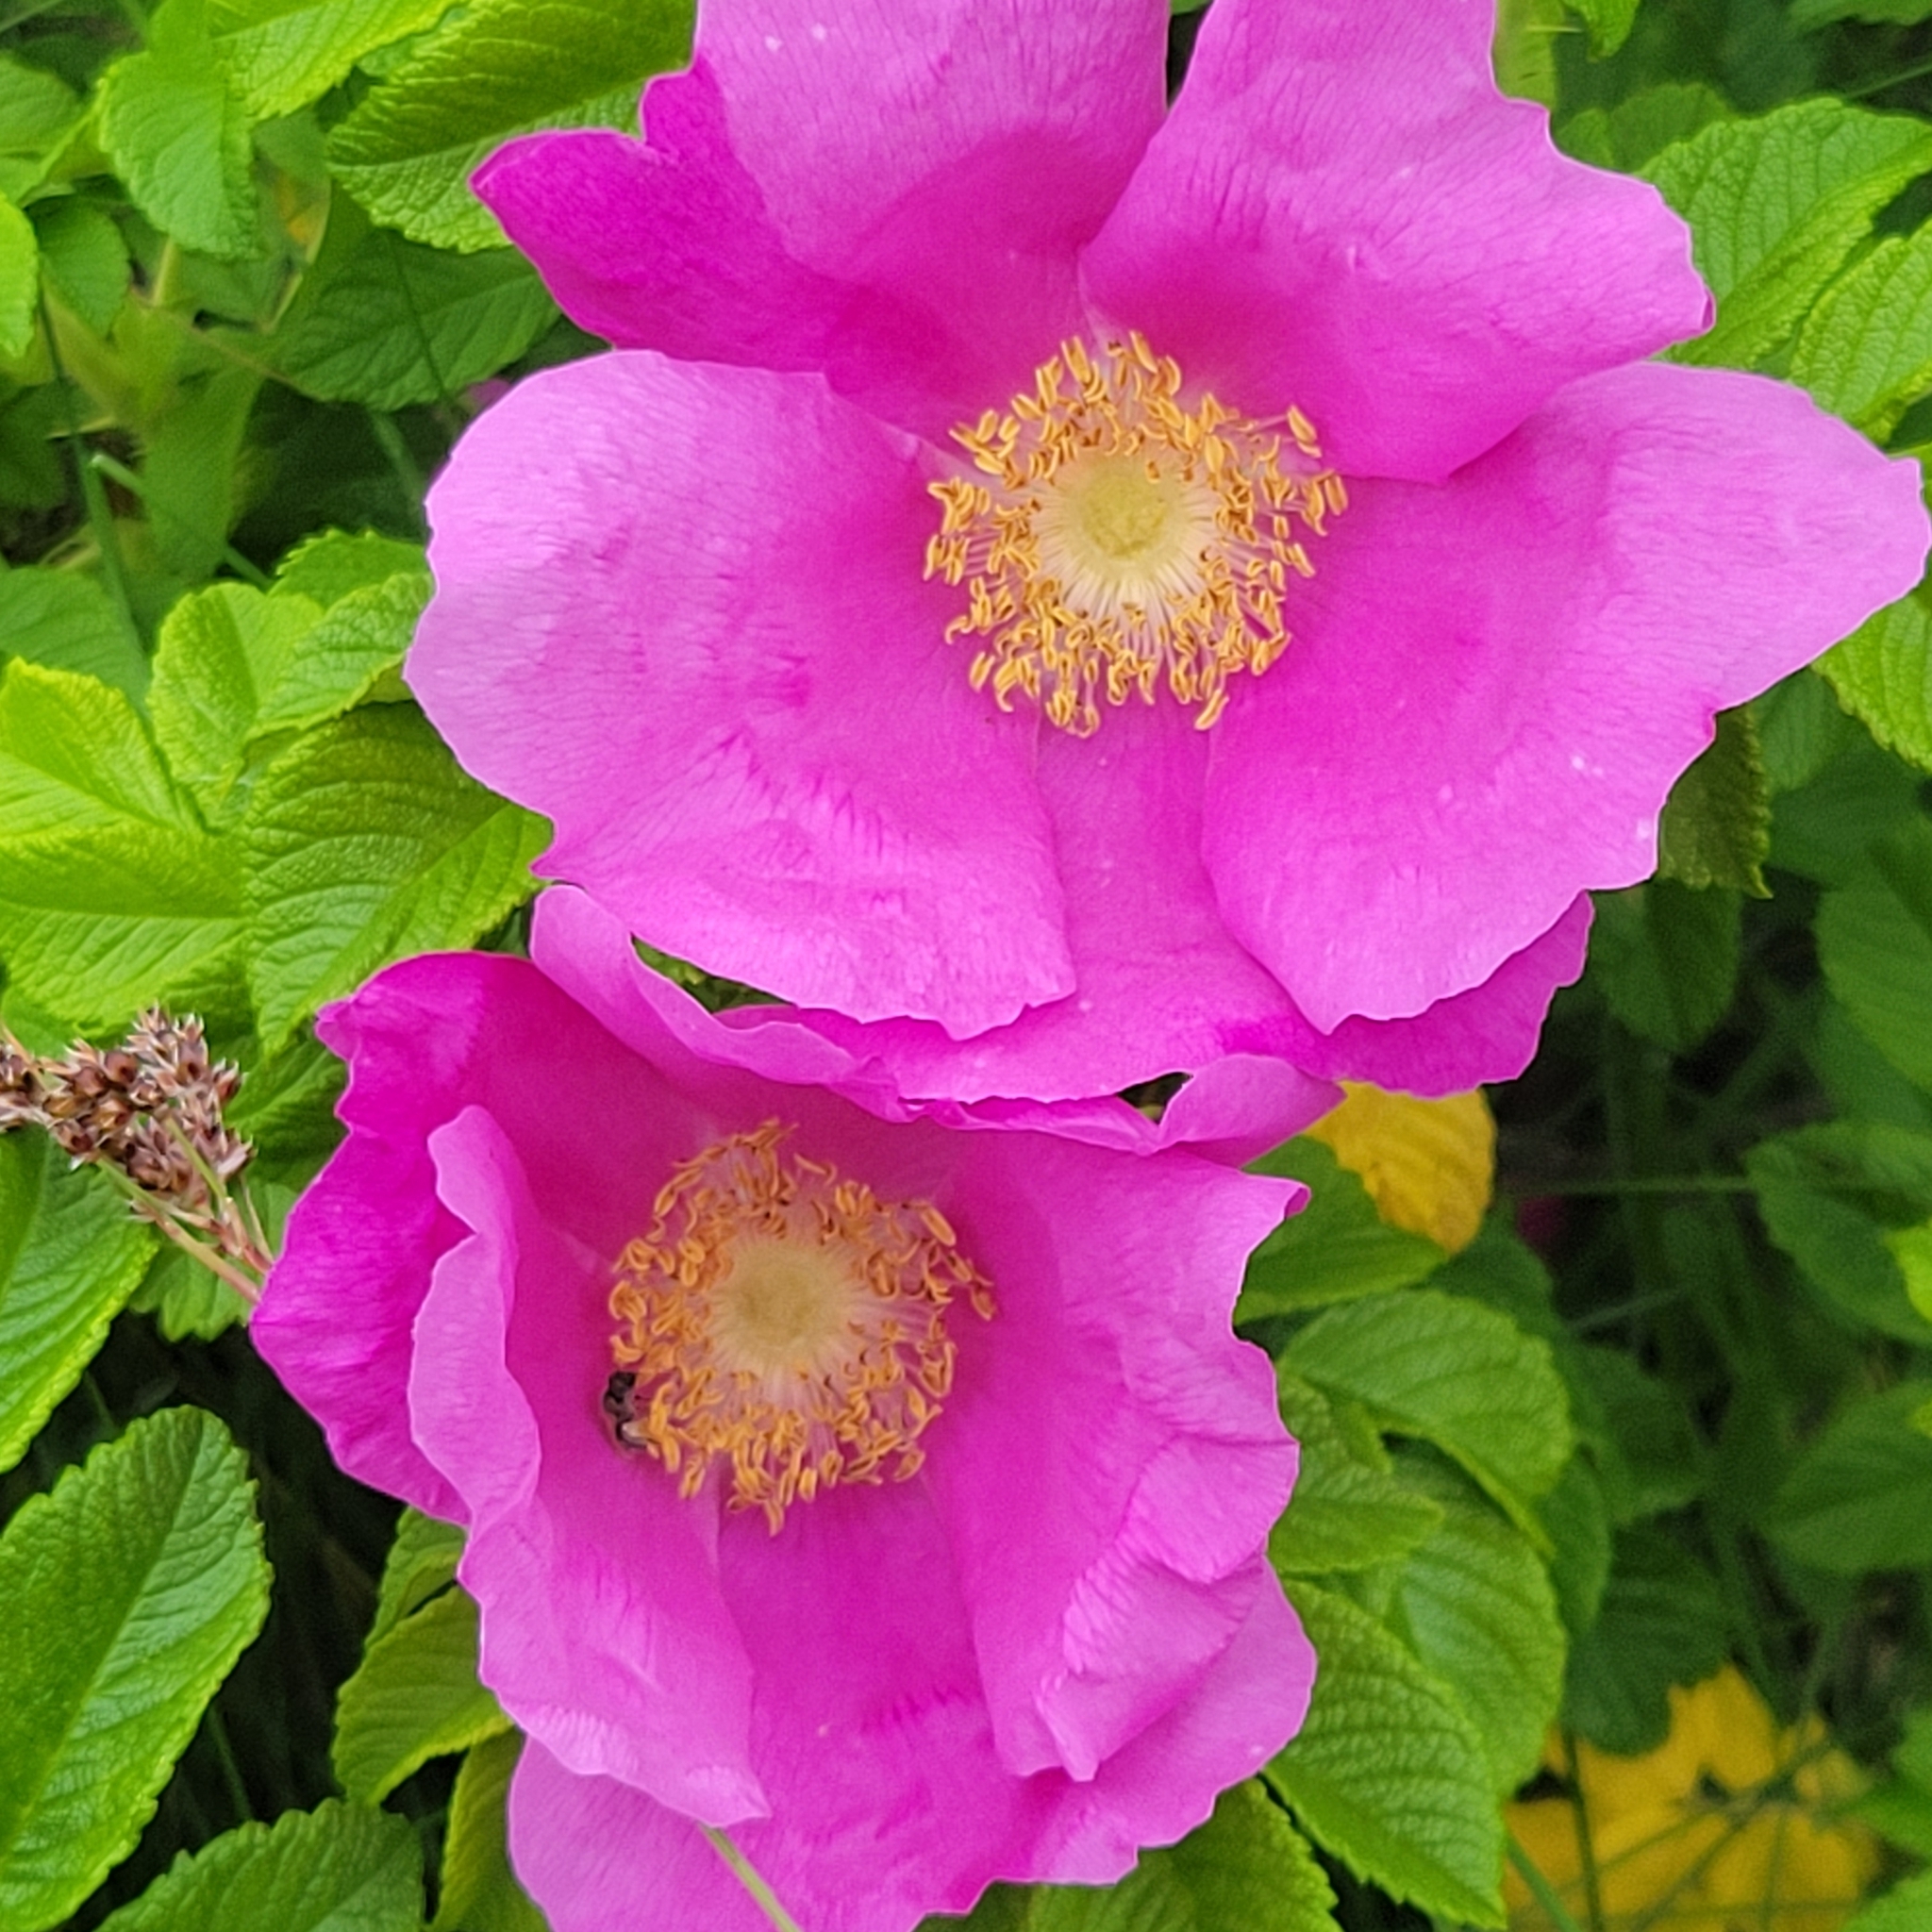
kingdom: Plantae
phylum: Tracheophyta
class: Magnoliopsida
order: Rosales
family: Rosaceae
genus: Rosa
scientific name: Rosa rugosa
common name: Japanese rose
